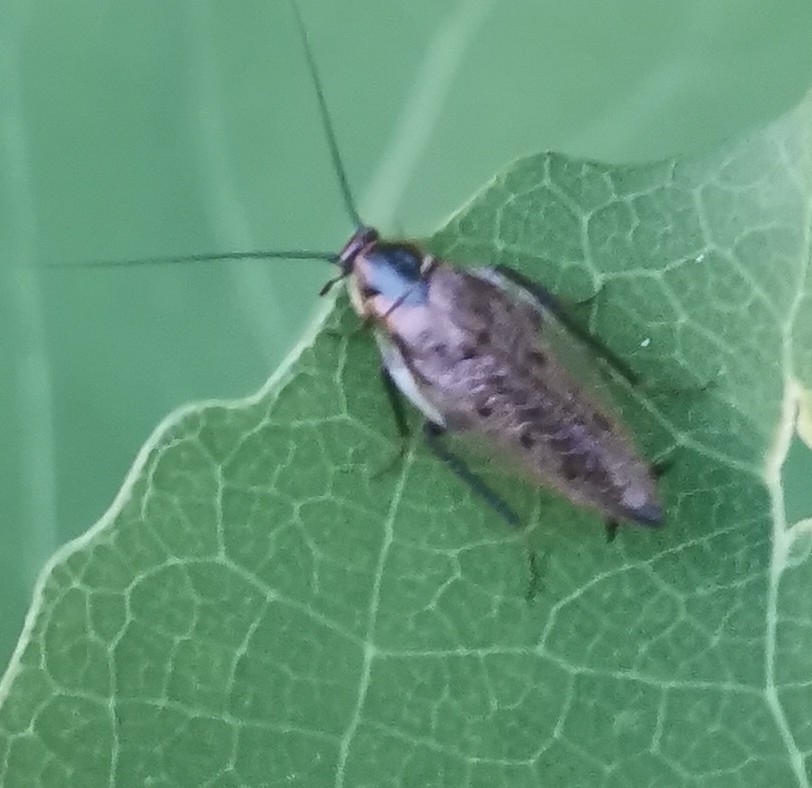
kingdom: Animalia
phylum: Arthropoda
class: Insecta
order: Blattodea
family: Ectobiidae
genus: Ectobius
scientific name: Ectobius lapponicus
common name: Dusky cockroach
